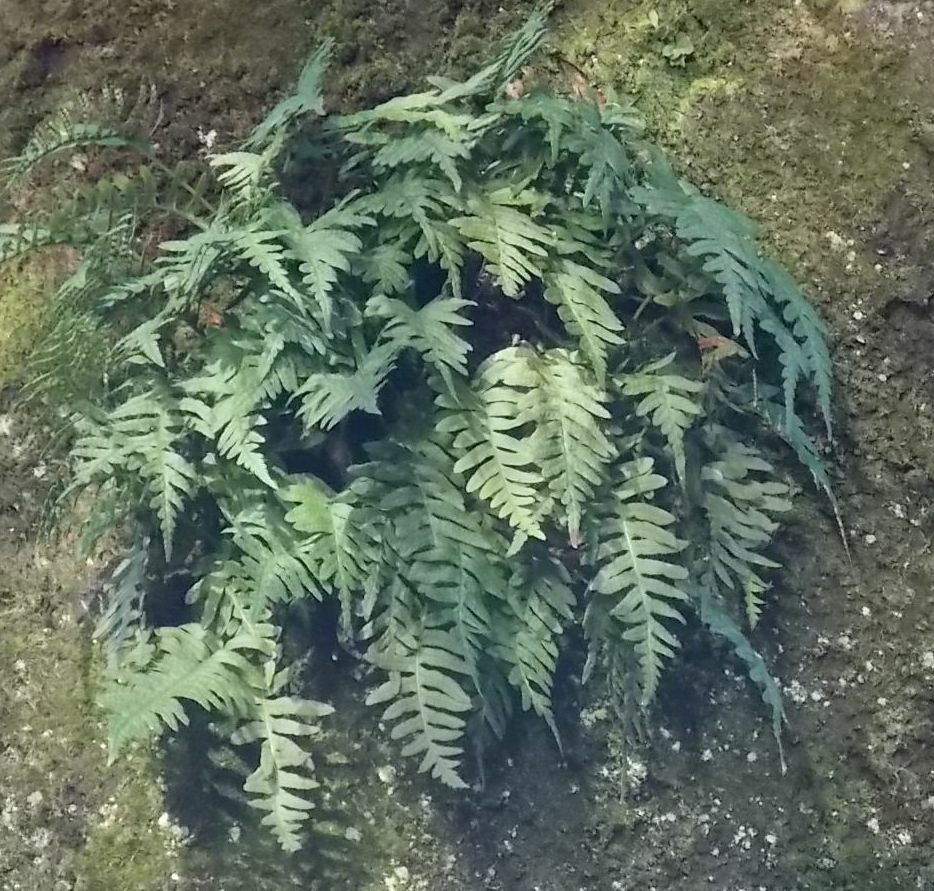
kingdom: Plantae
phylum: Tracheophyta
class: Polypodiopsida
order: Polypodiales
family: Polypodiaceae
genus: Polypodium
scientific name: Polypodium
